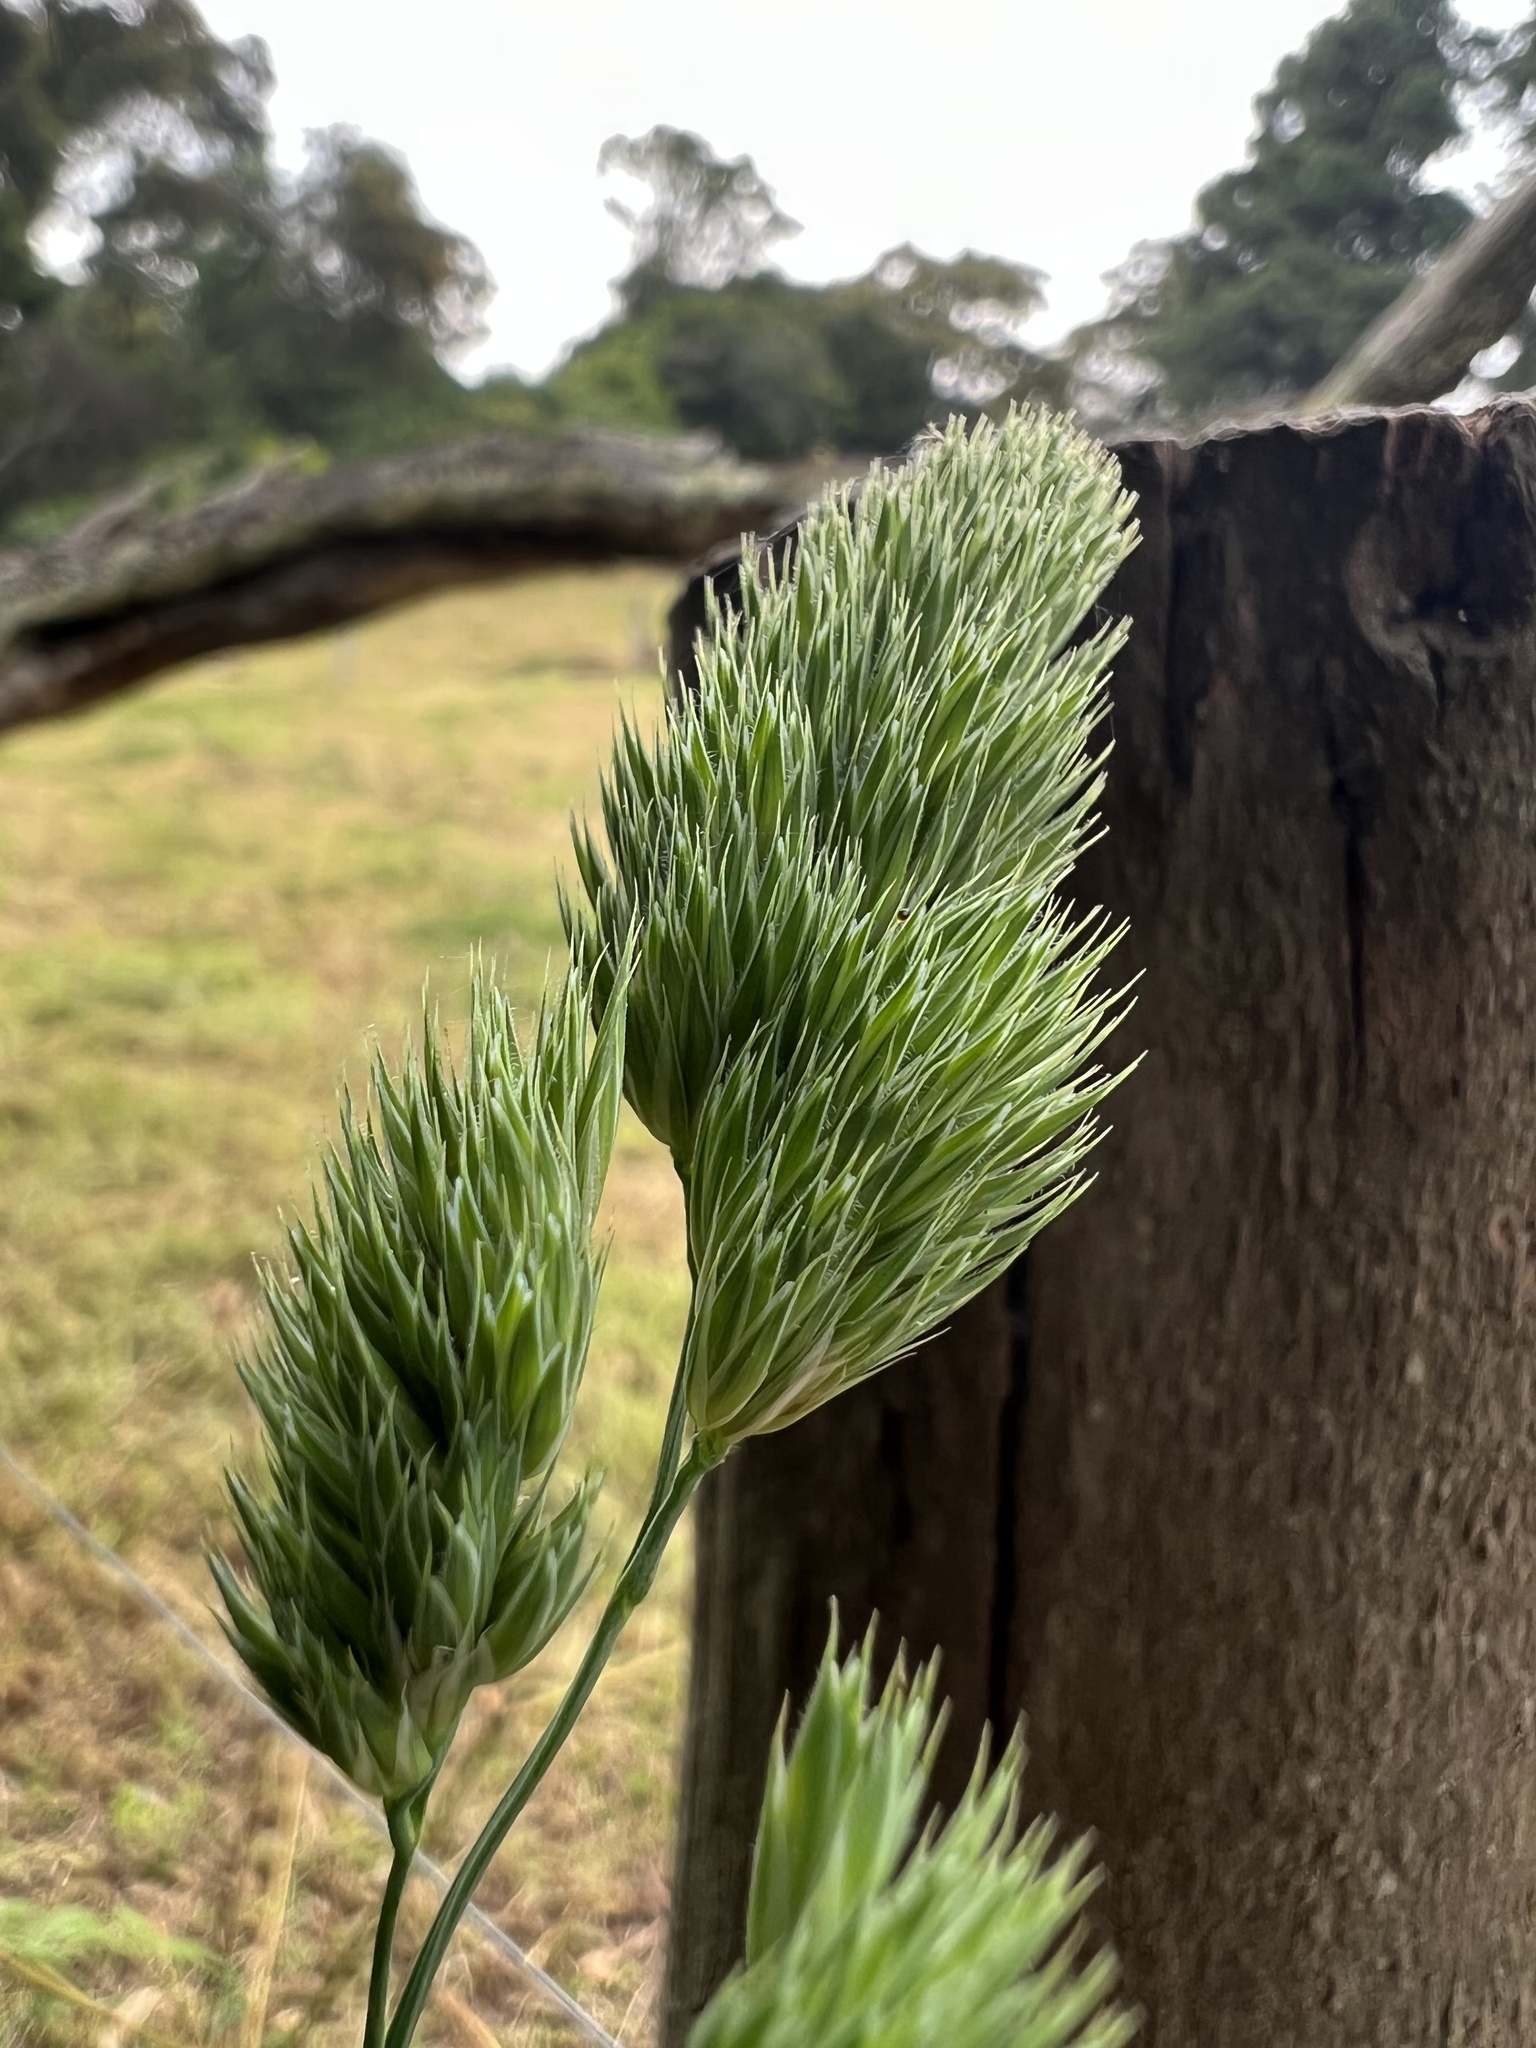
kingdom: Plantae
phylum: Tracheophyta
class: Liliopsida
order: Poales
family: Poaceae
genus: Dactylis
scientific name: Dactylis glomerata
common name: Orchardgrass
